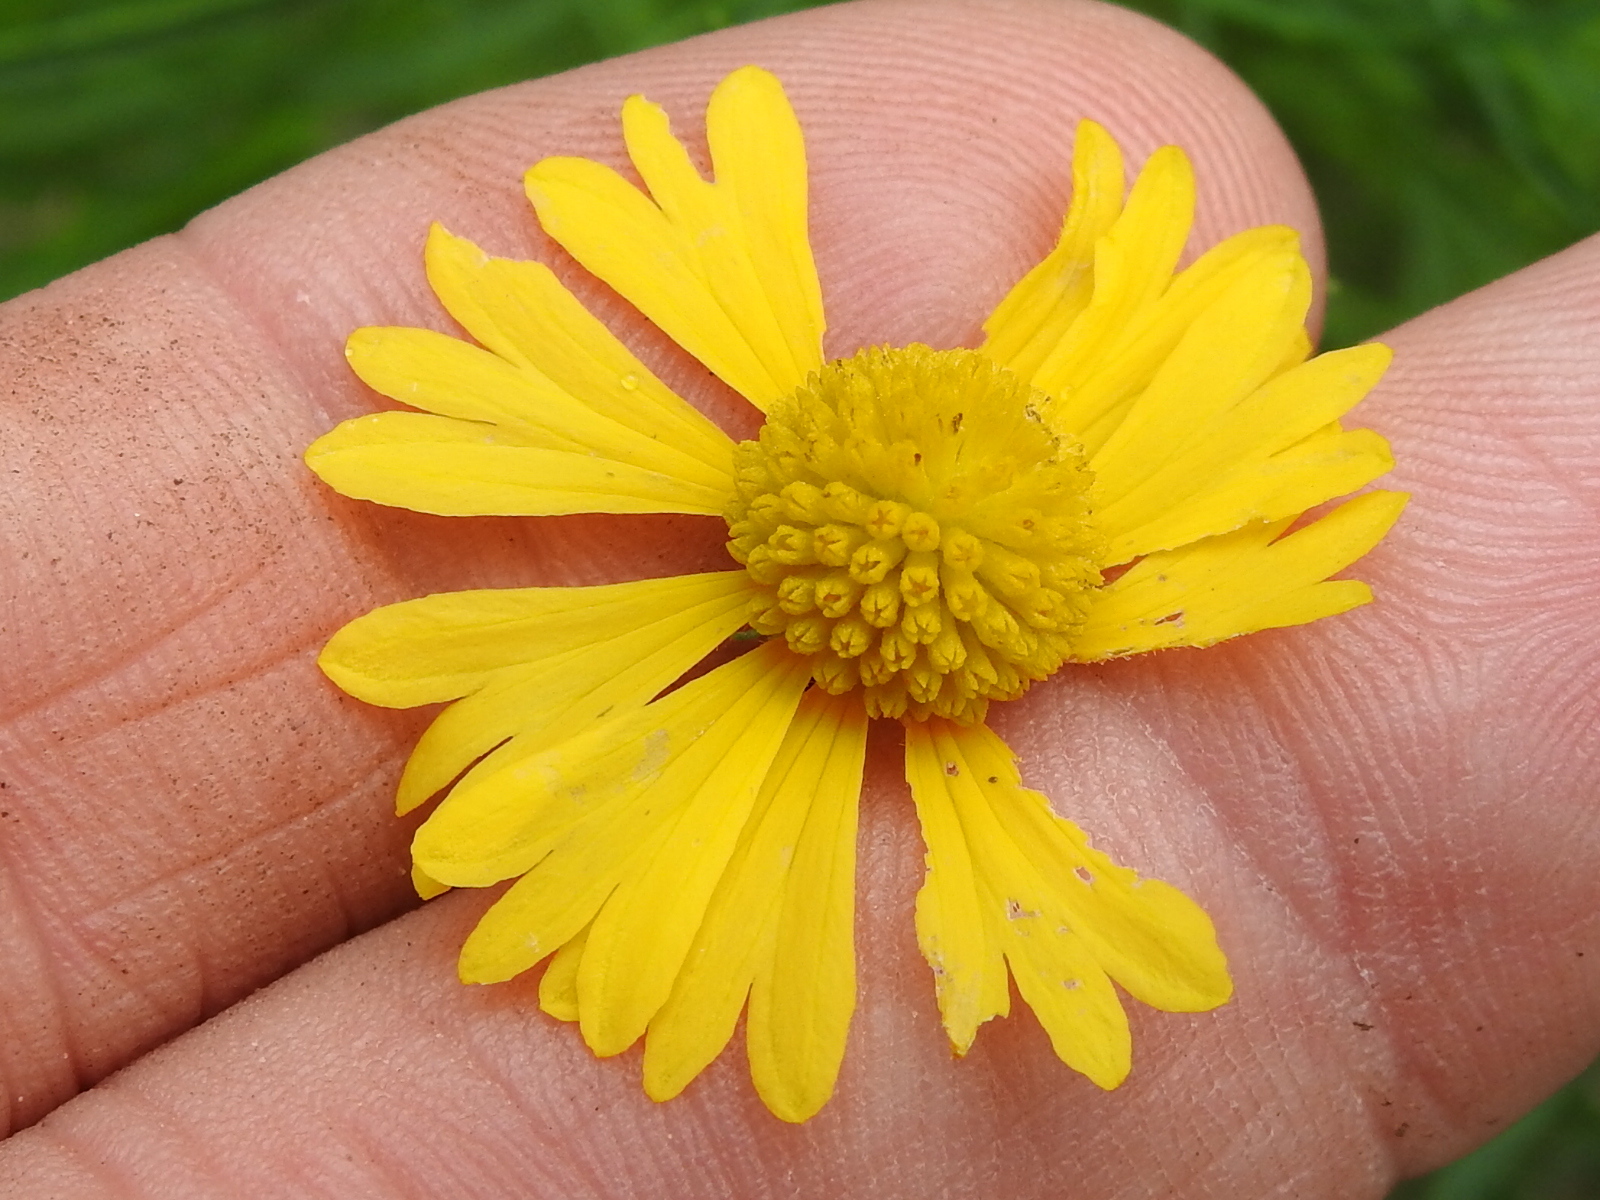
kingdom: Plantae
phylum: Tracheophyta
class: Magnoliopsida
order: Asterales
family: Asteraceae
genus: Helenium
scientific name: Helenium amarum
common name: Bitter sneezeweed
